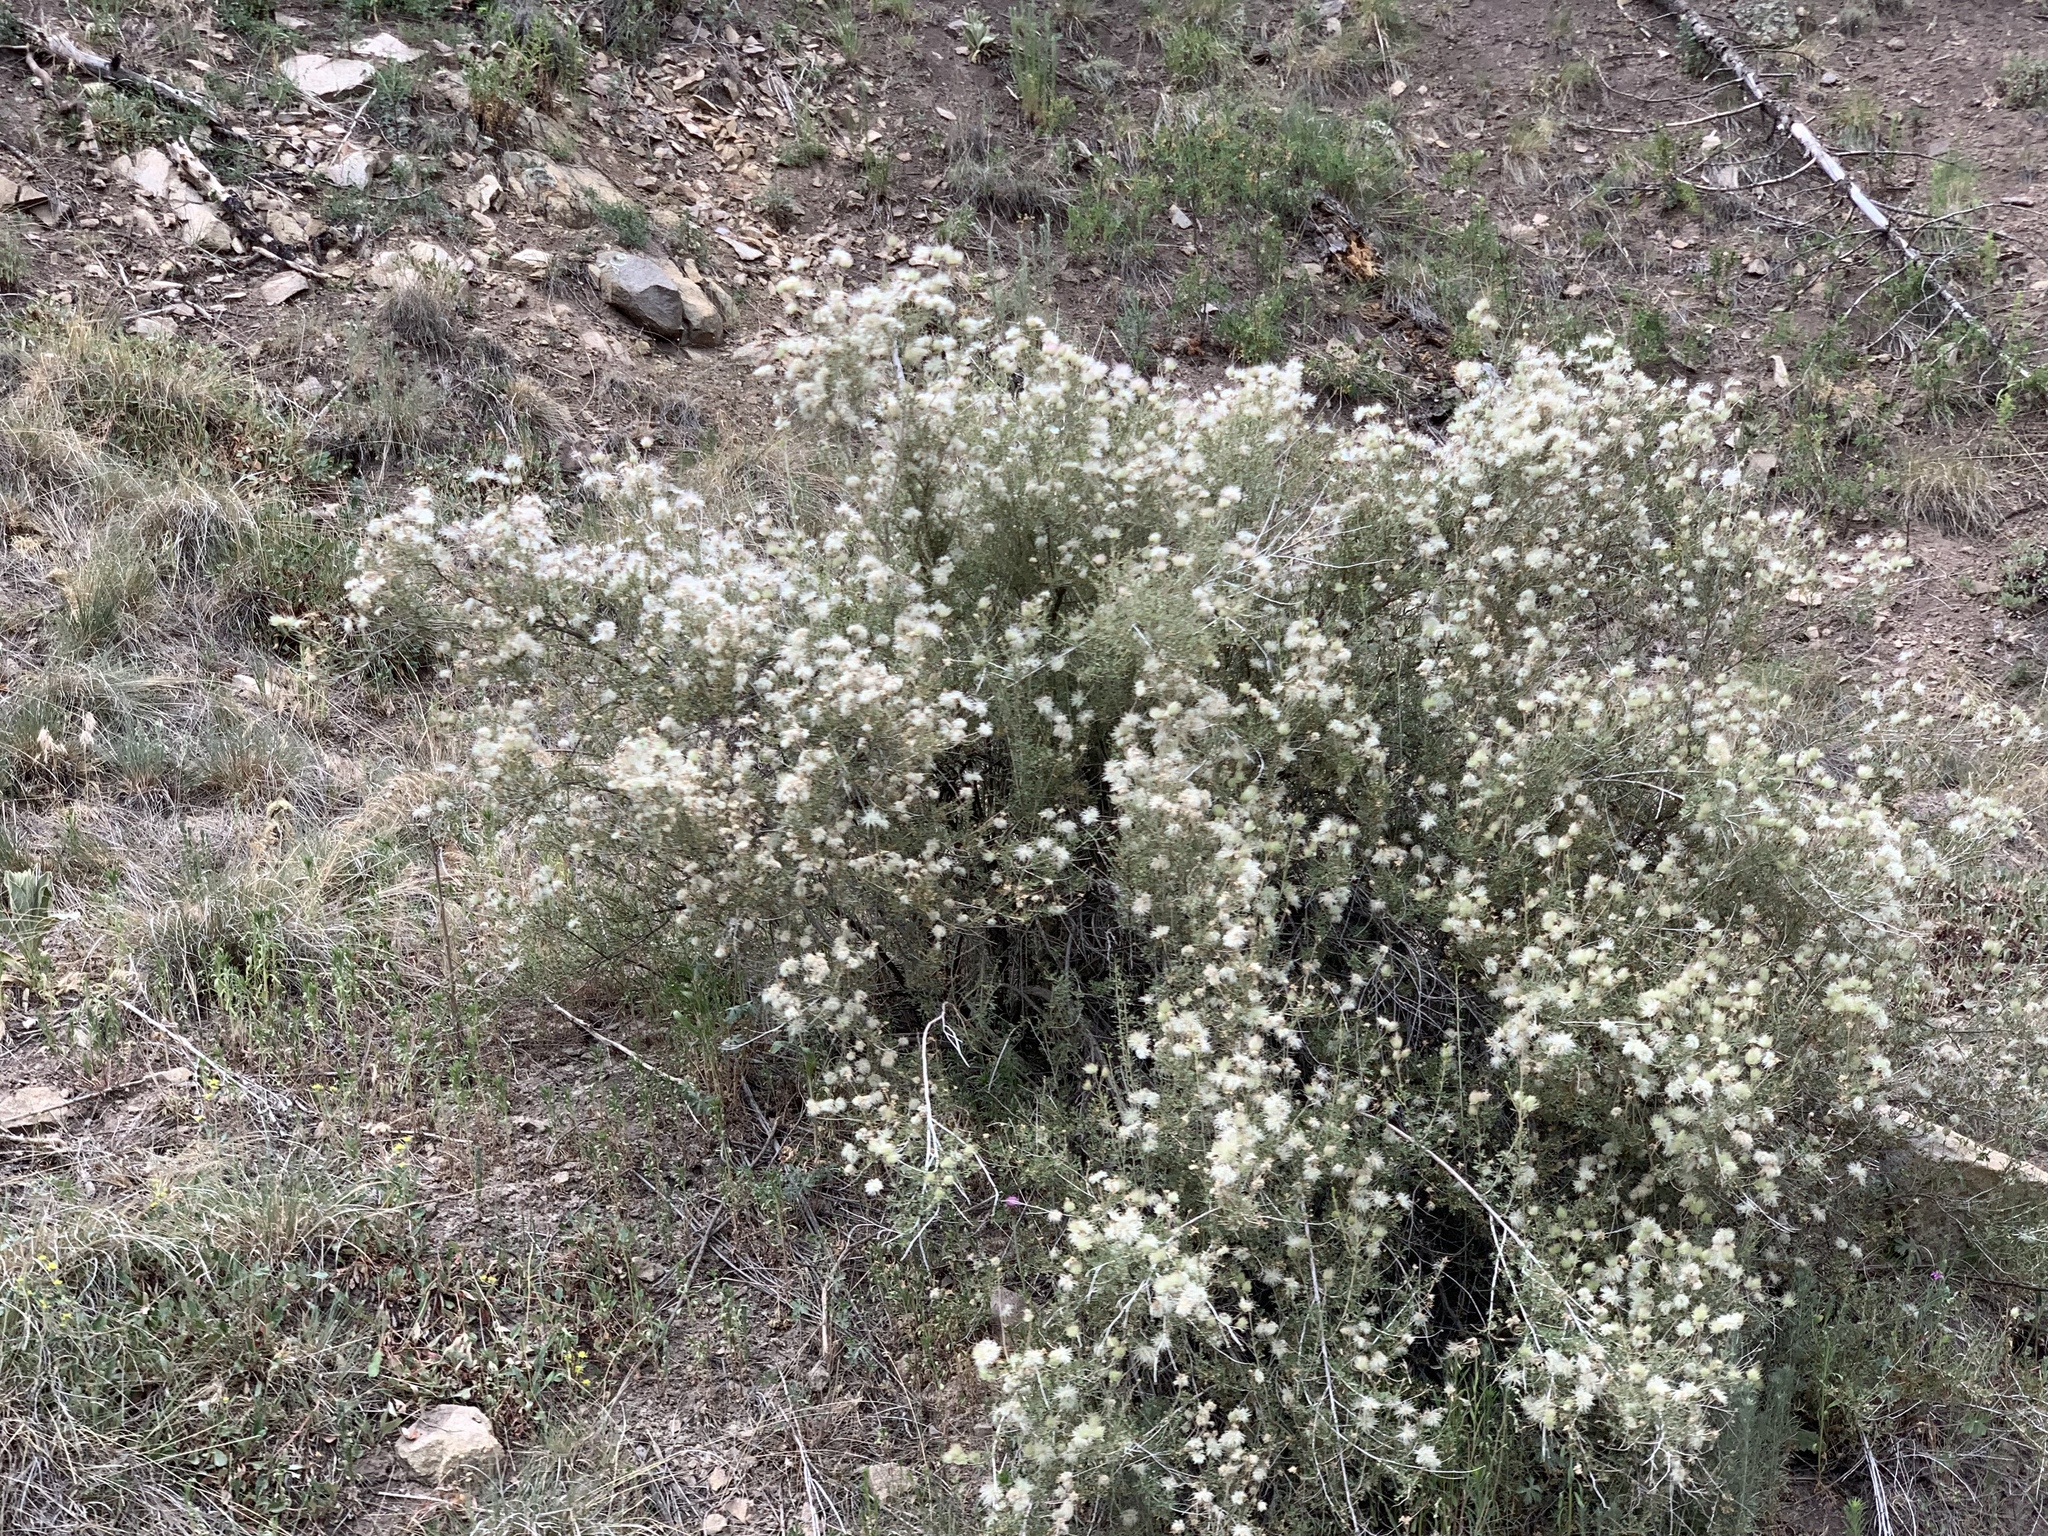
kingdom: Plantae
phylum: Tracheophyta
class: Magnoliopsida
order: Rosales
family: Rosaceae
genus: Fallugia
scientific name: Fallugia paradoxa
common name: Apache-plume
